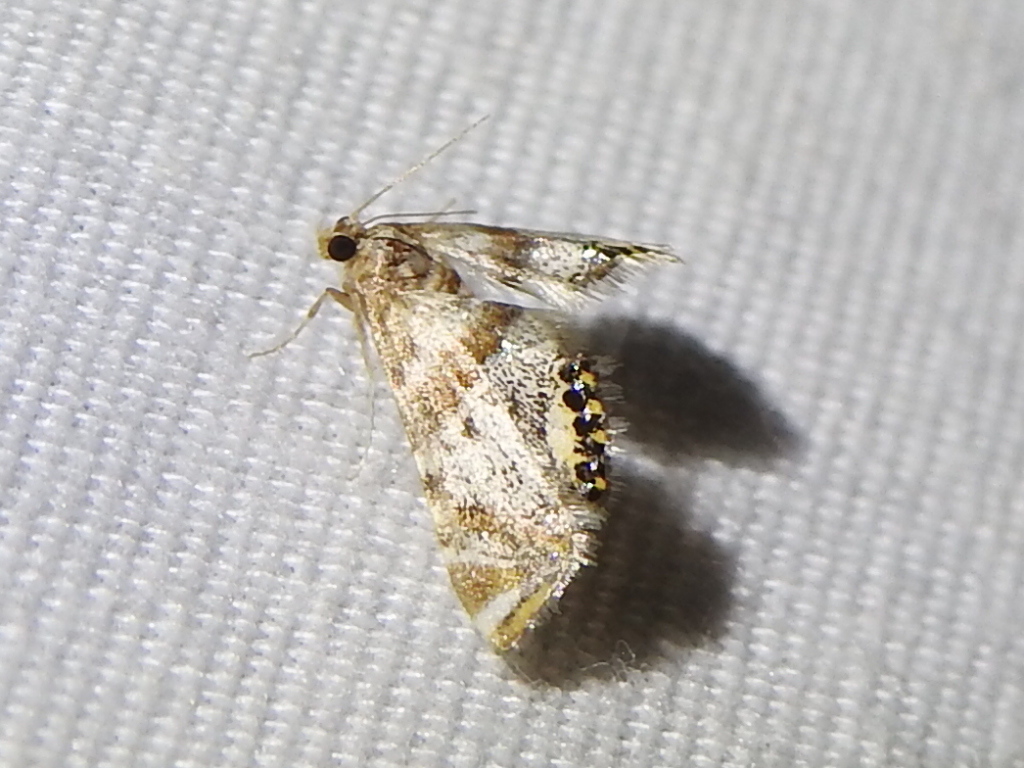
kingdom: Animalia
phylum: Arthropoda
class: Insecta
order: Lepidoptera
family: Crambidae
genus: Petrophila
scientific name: Petrophila fulicalis
